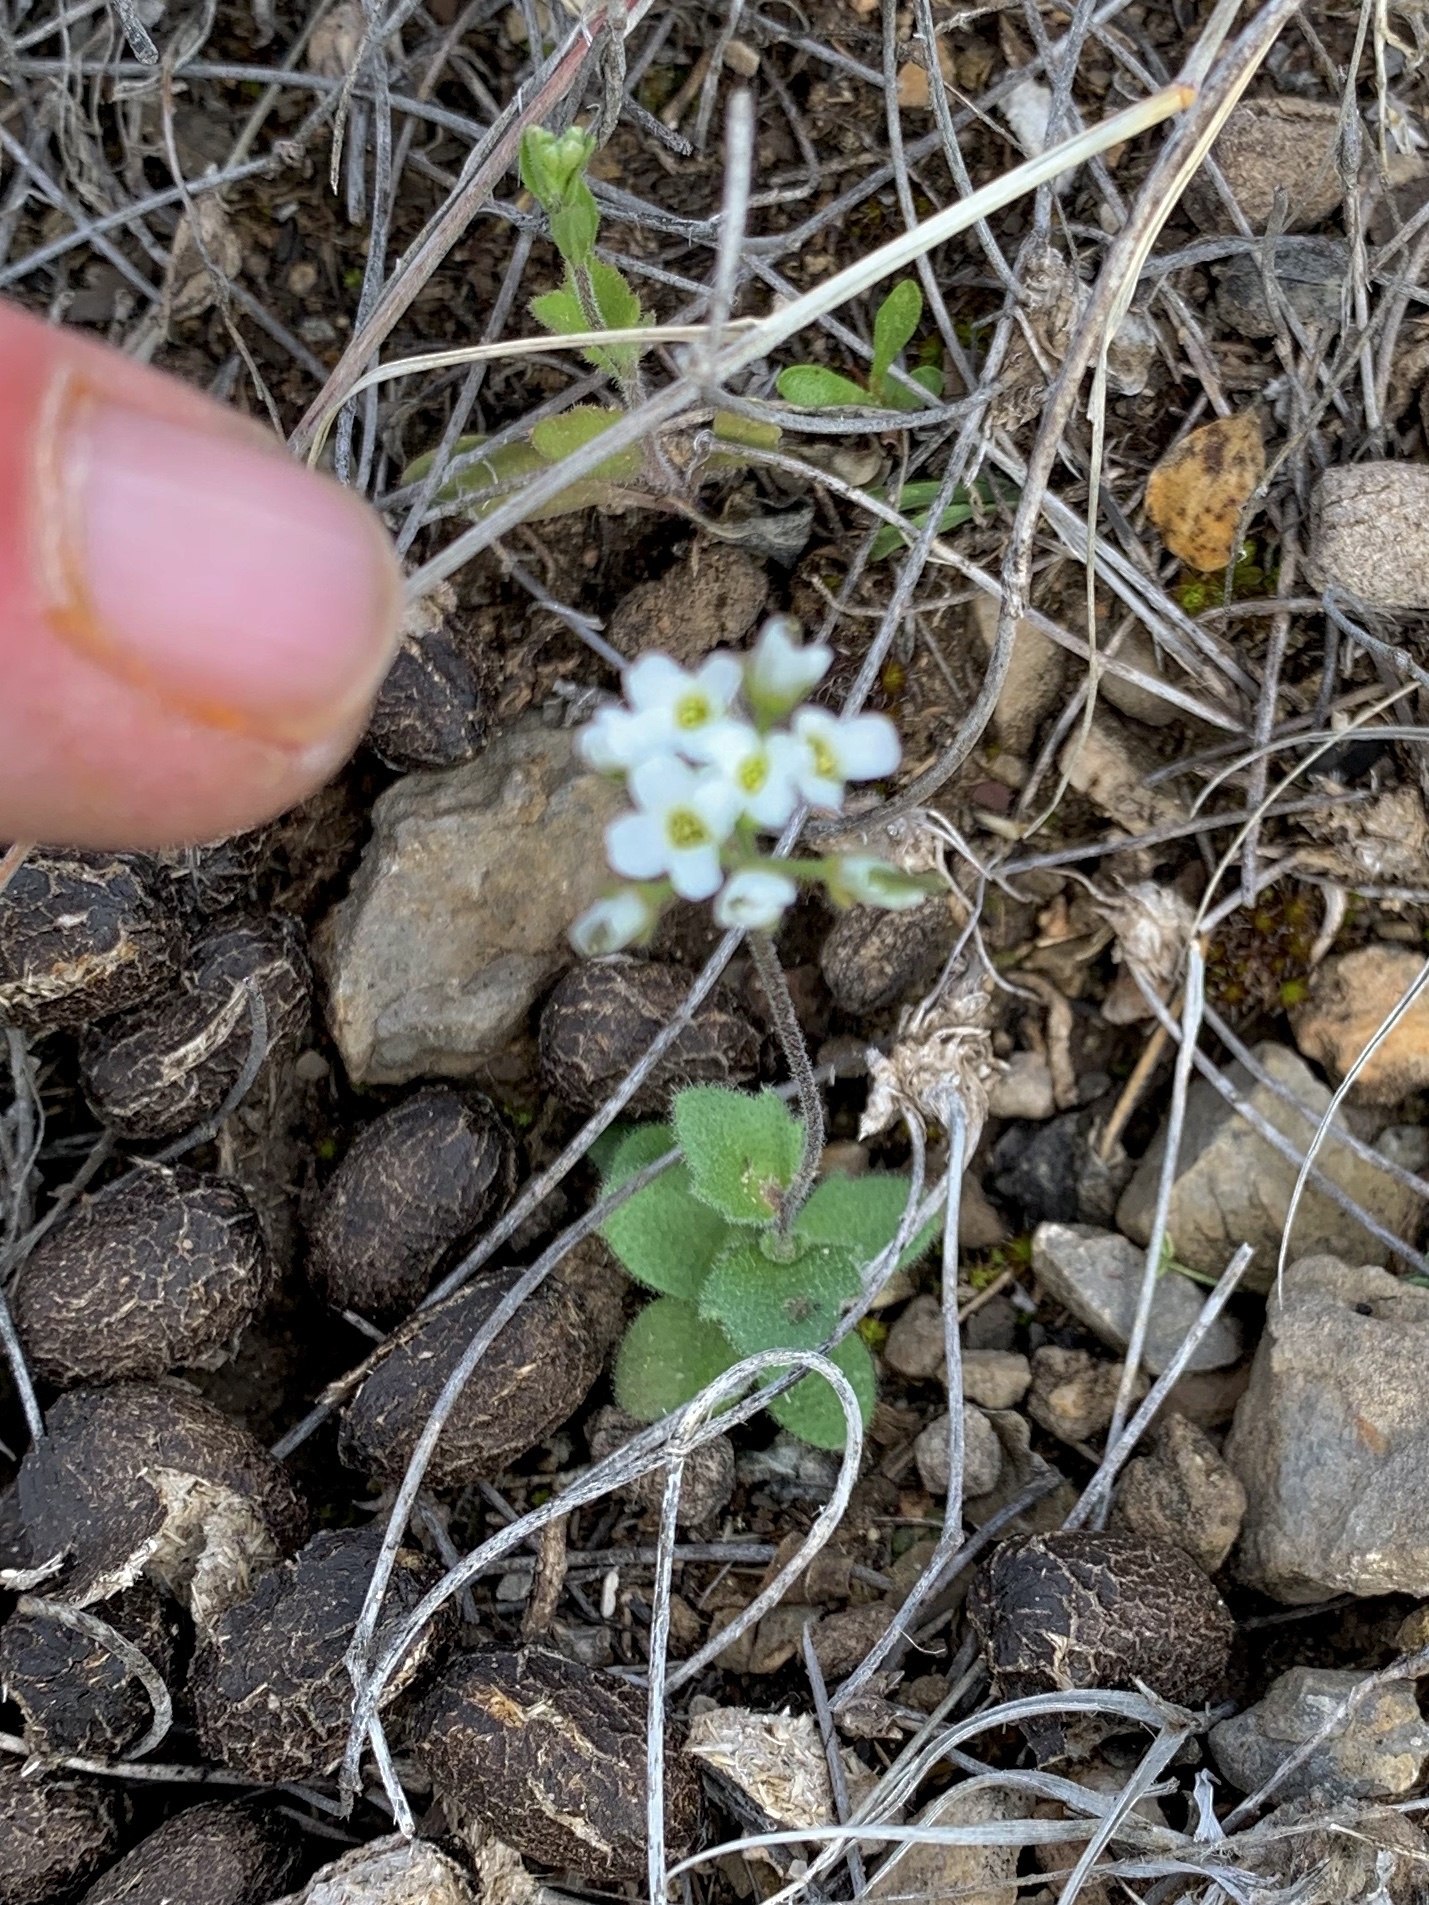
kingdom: Plantae
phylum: Tracheophyta
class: Magnoliopsida
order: Brassicales
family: Brassicaceae
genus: Tomostima
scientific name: Tomostima cuneifolia
